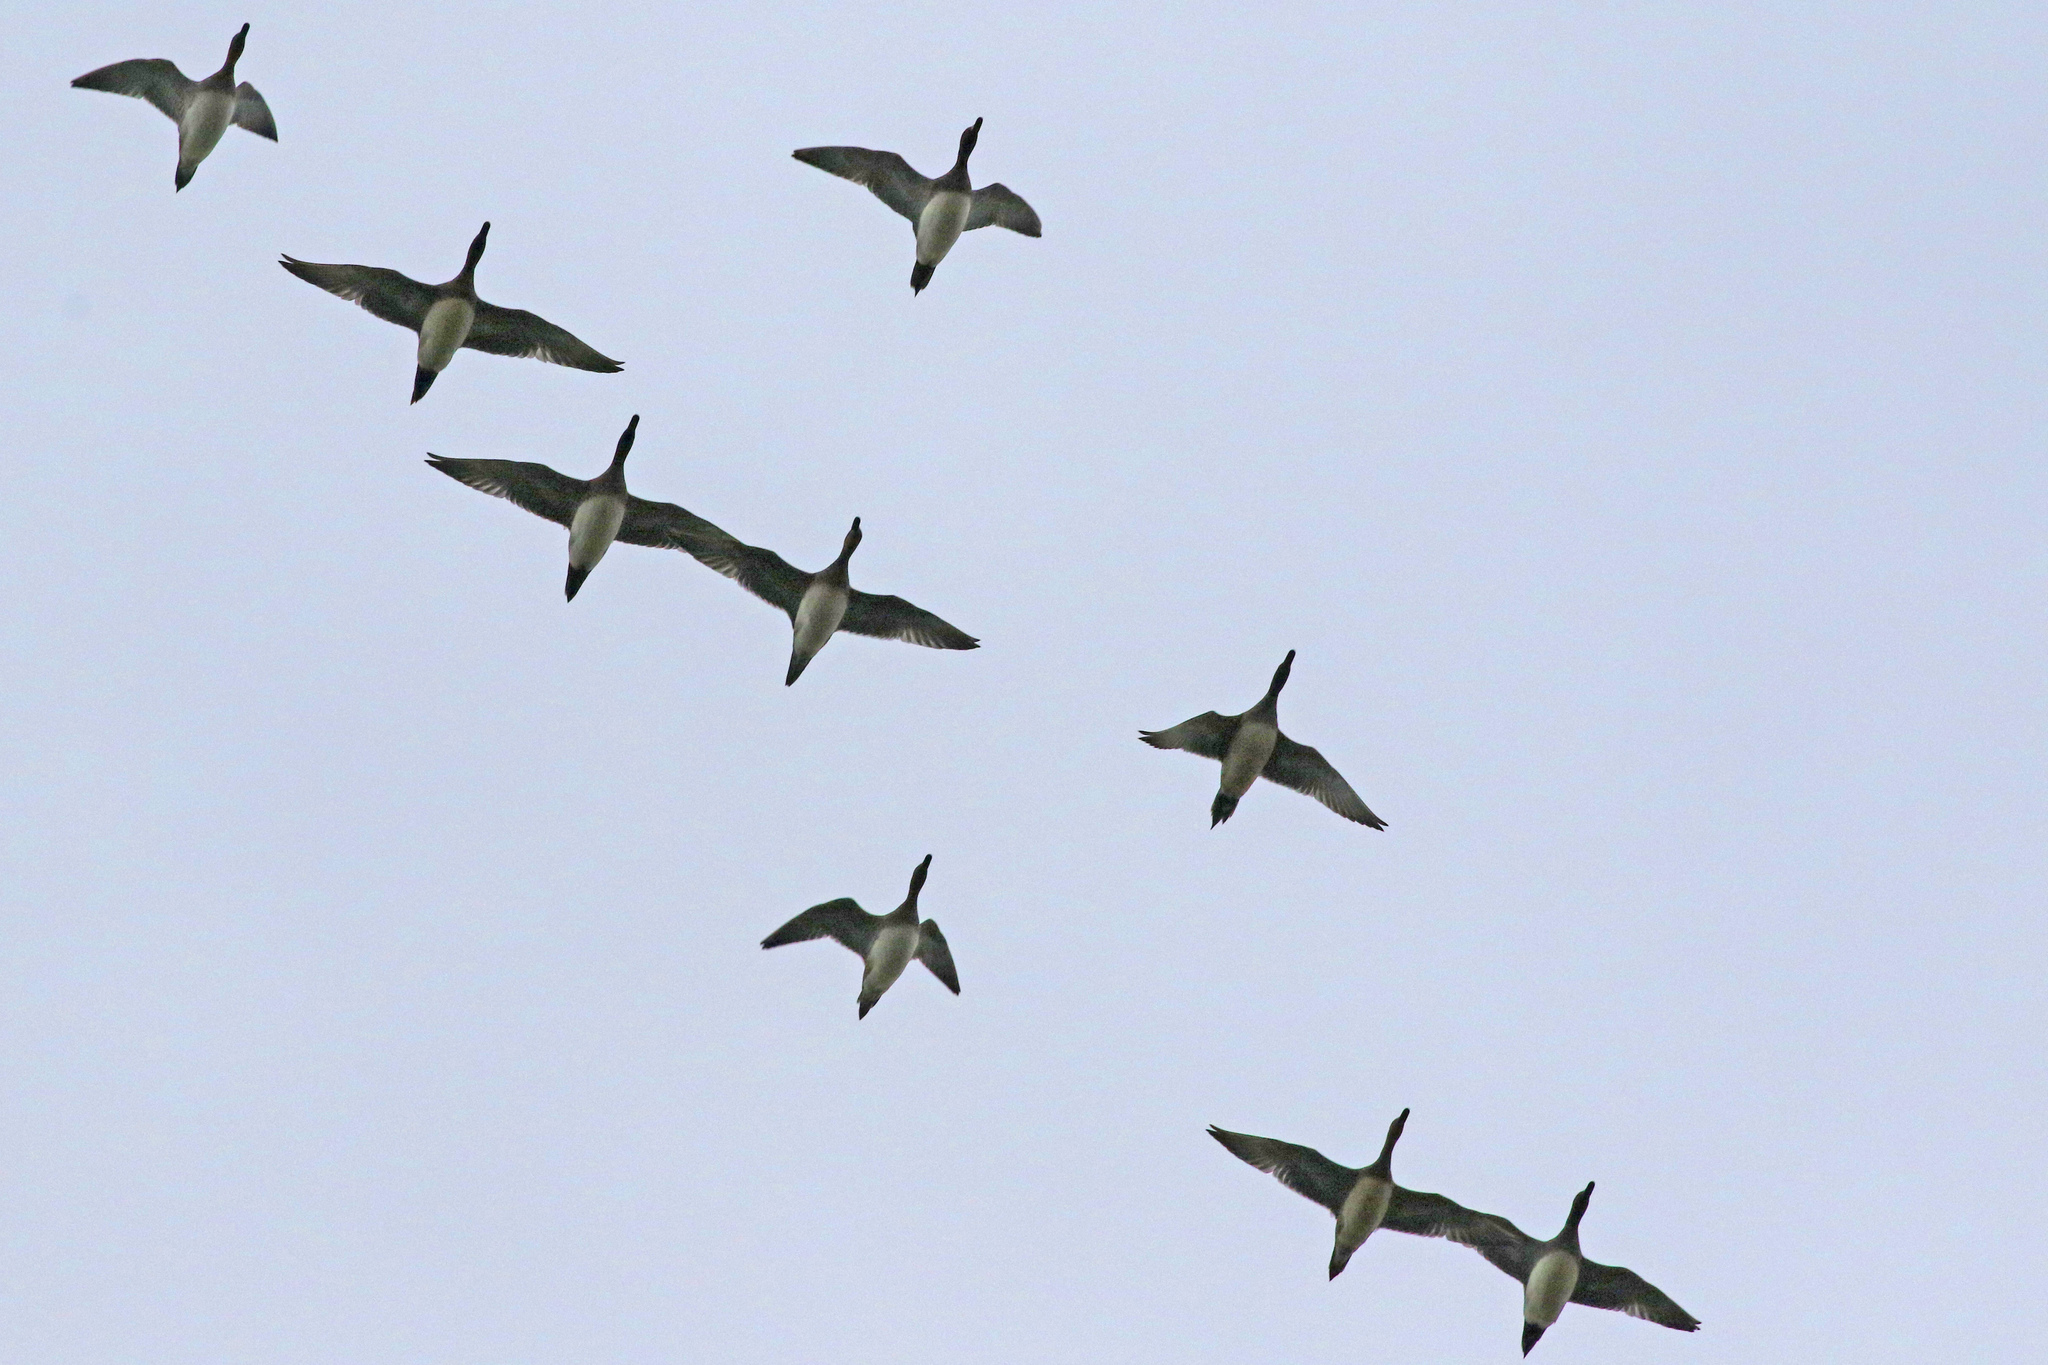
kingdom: Animalia
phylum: Chordata
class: Aves
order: Anseriformes
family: Anatidae
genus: Mareca
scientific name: Mareca penelope
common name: Eurasian wigeon
